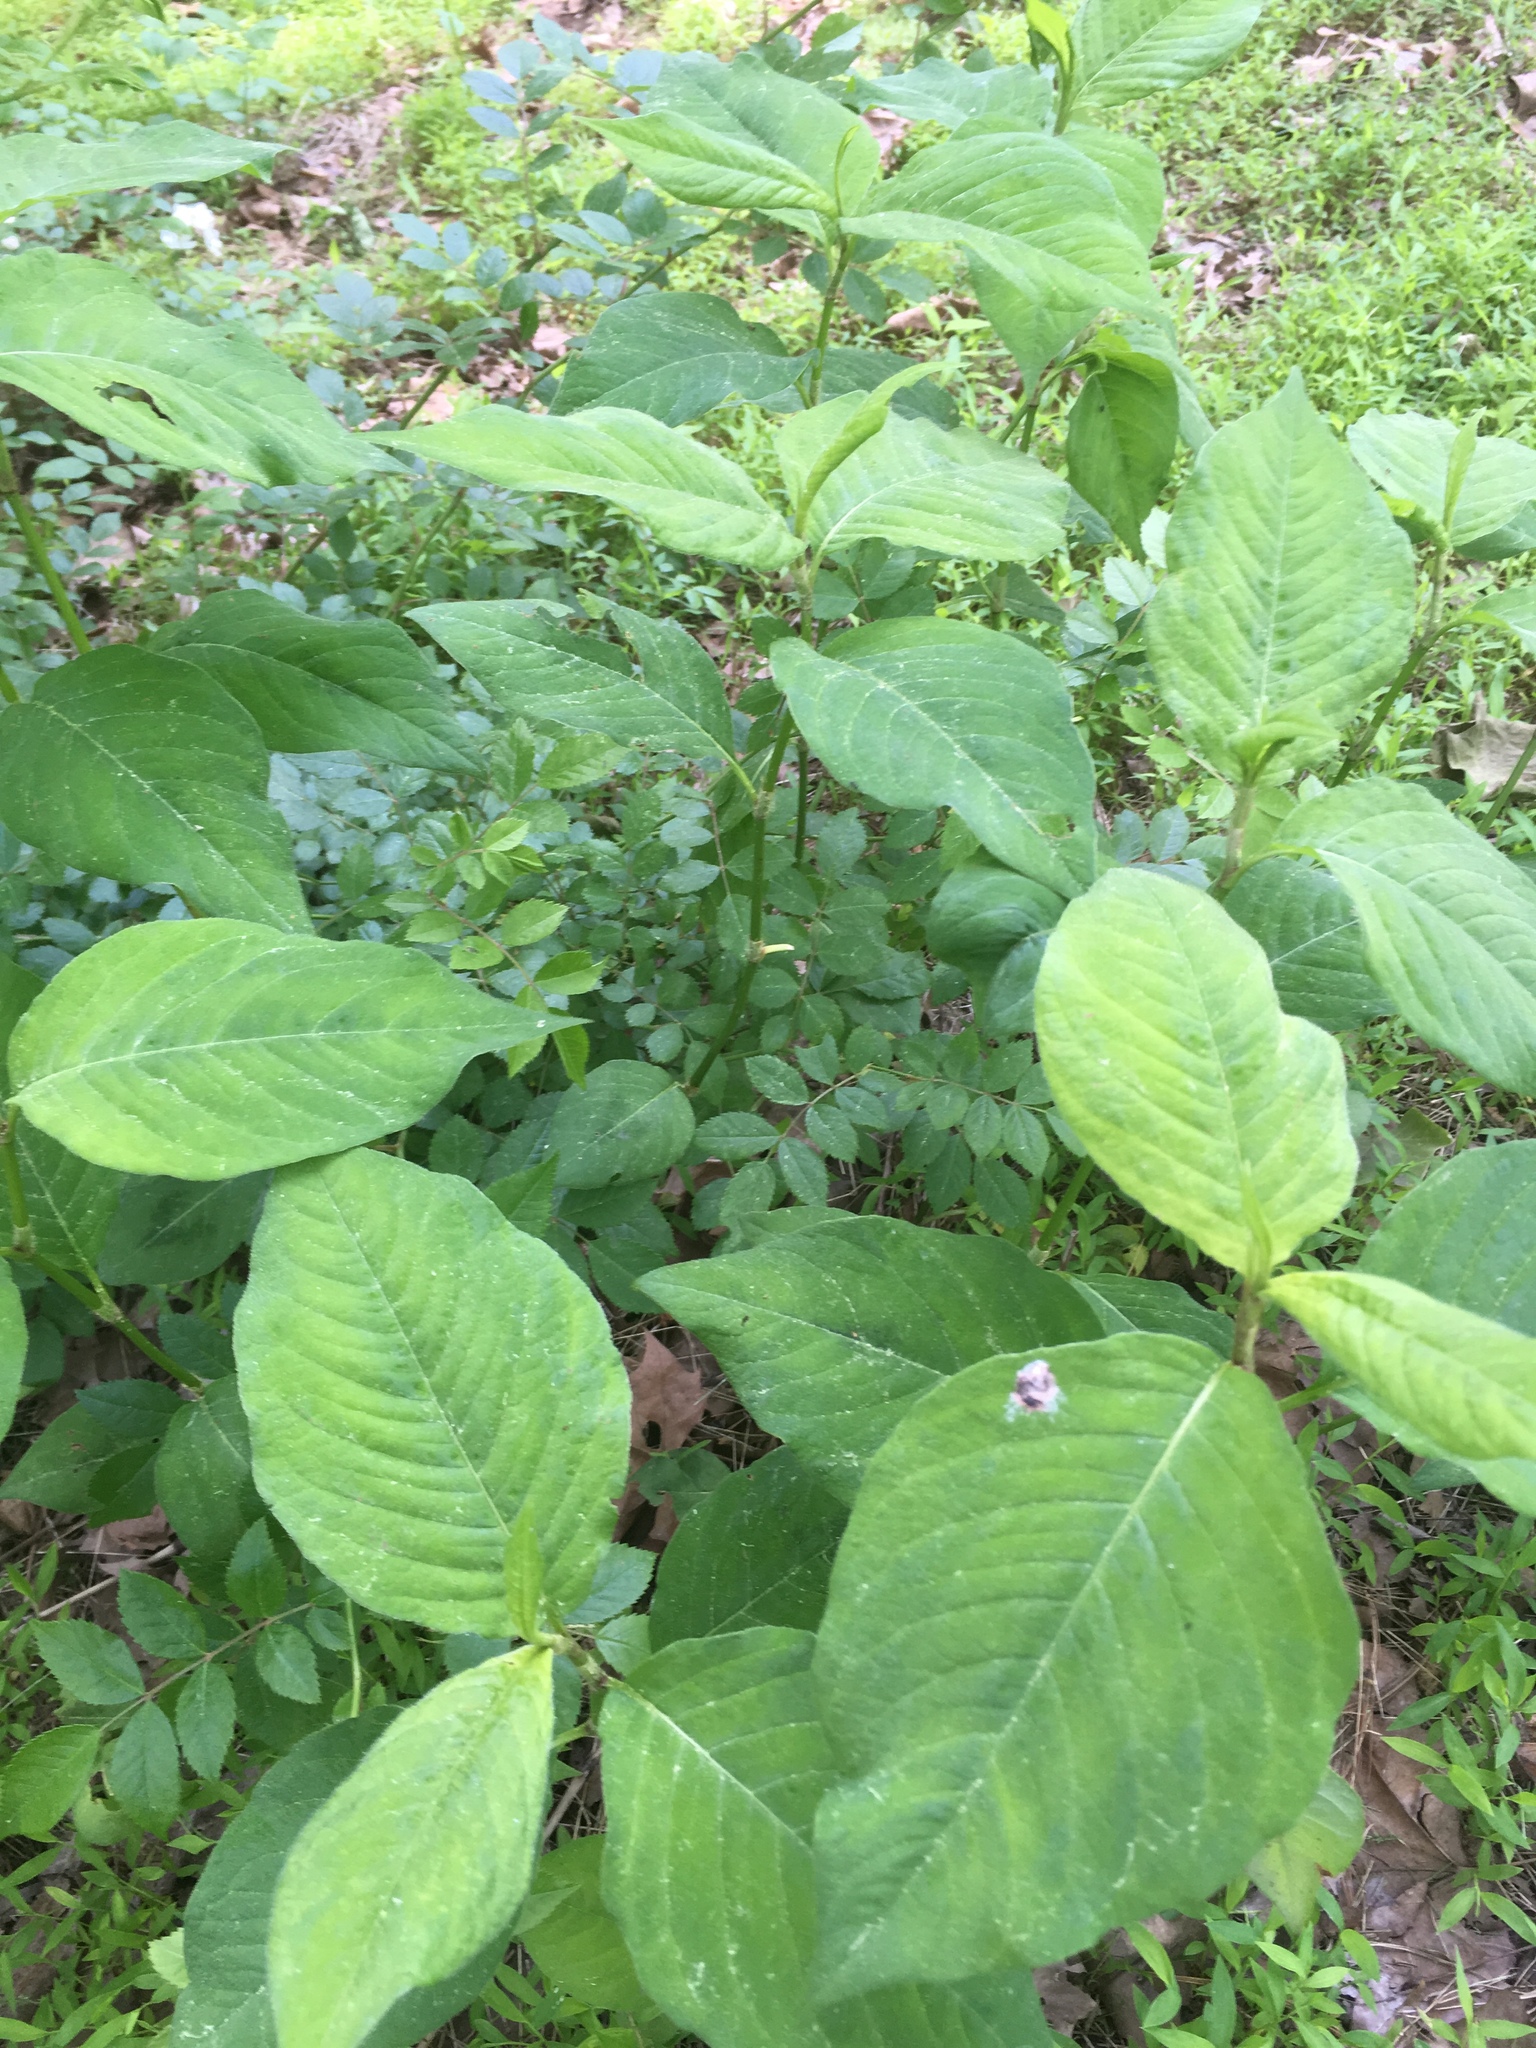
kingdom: Plantae
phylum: Tracheophyta
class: Magnoliopsida
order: Caryophyllales
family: Polygonaceae
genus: Persicaria
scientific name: Persicaria virginiana
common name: Jumpseed
